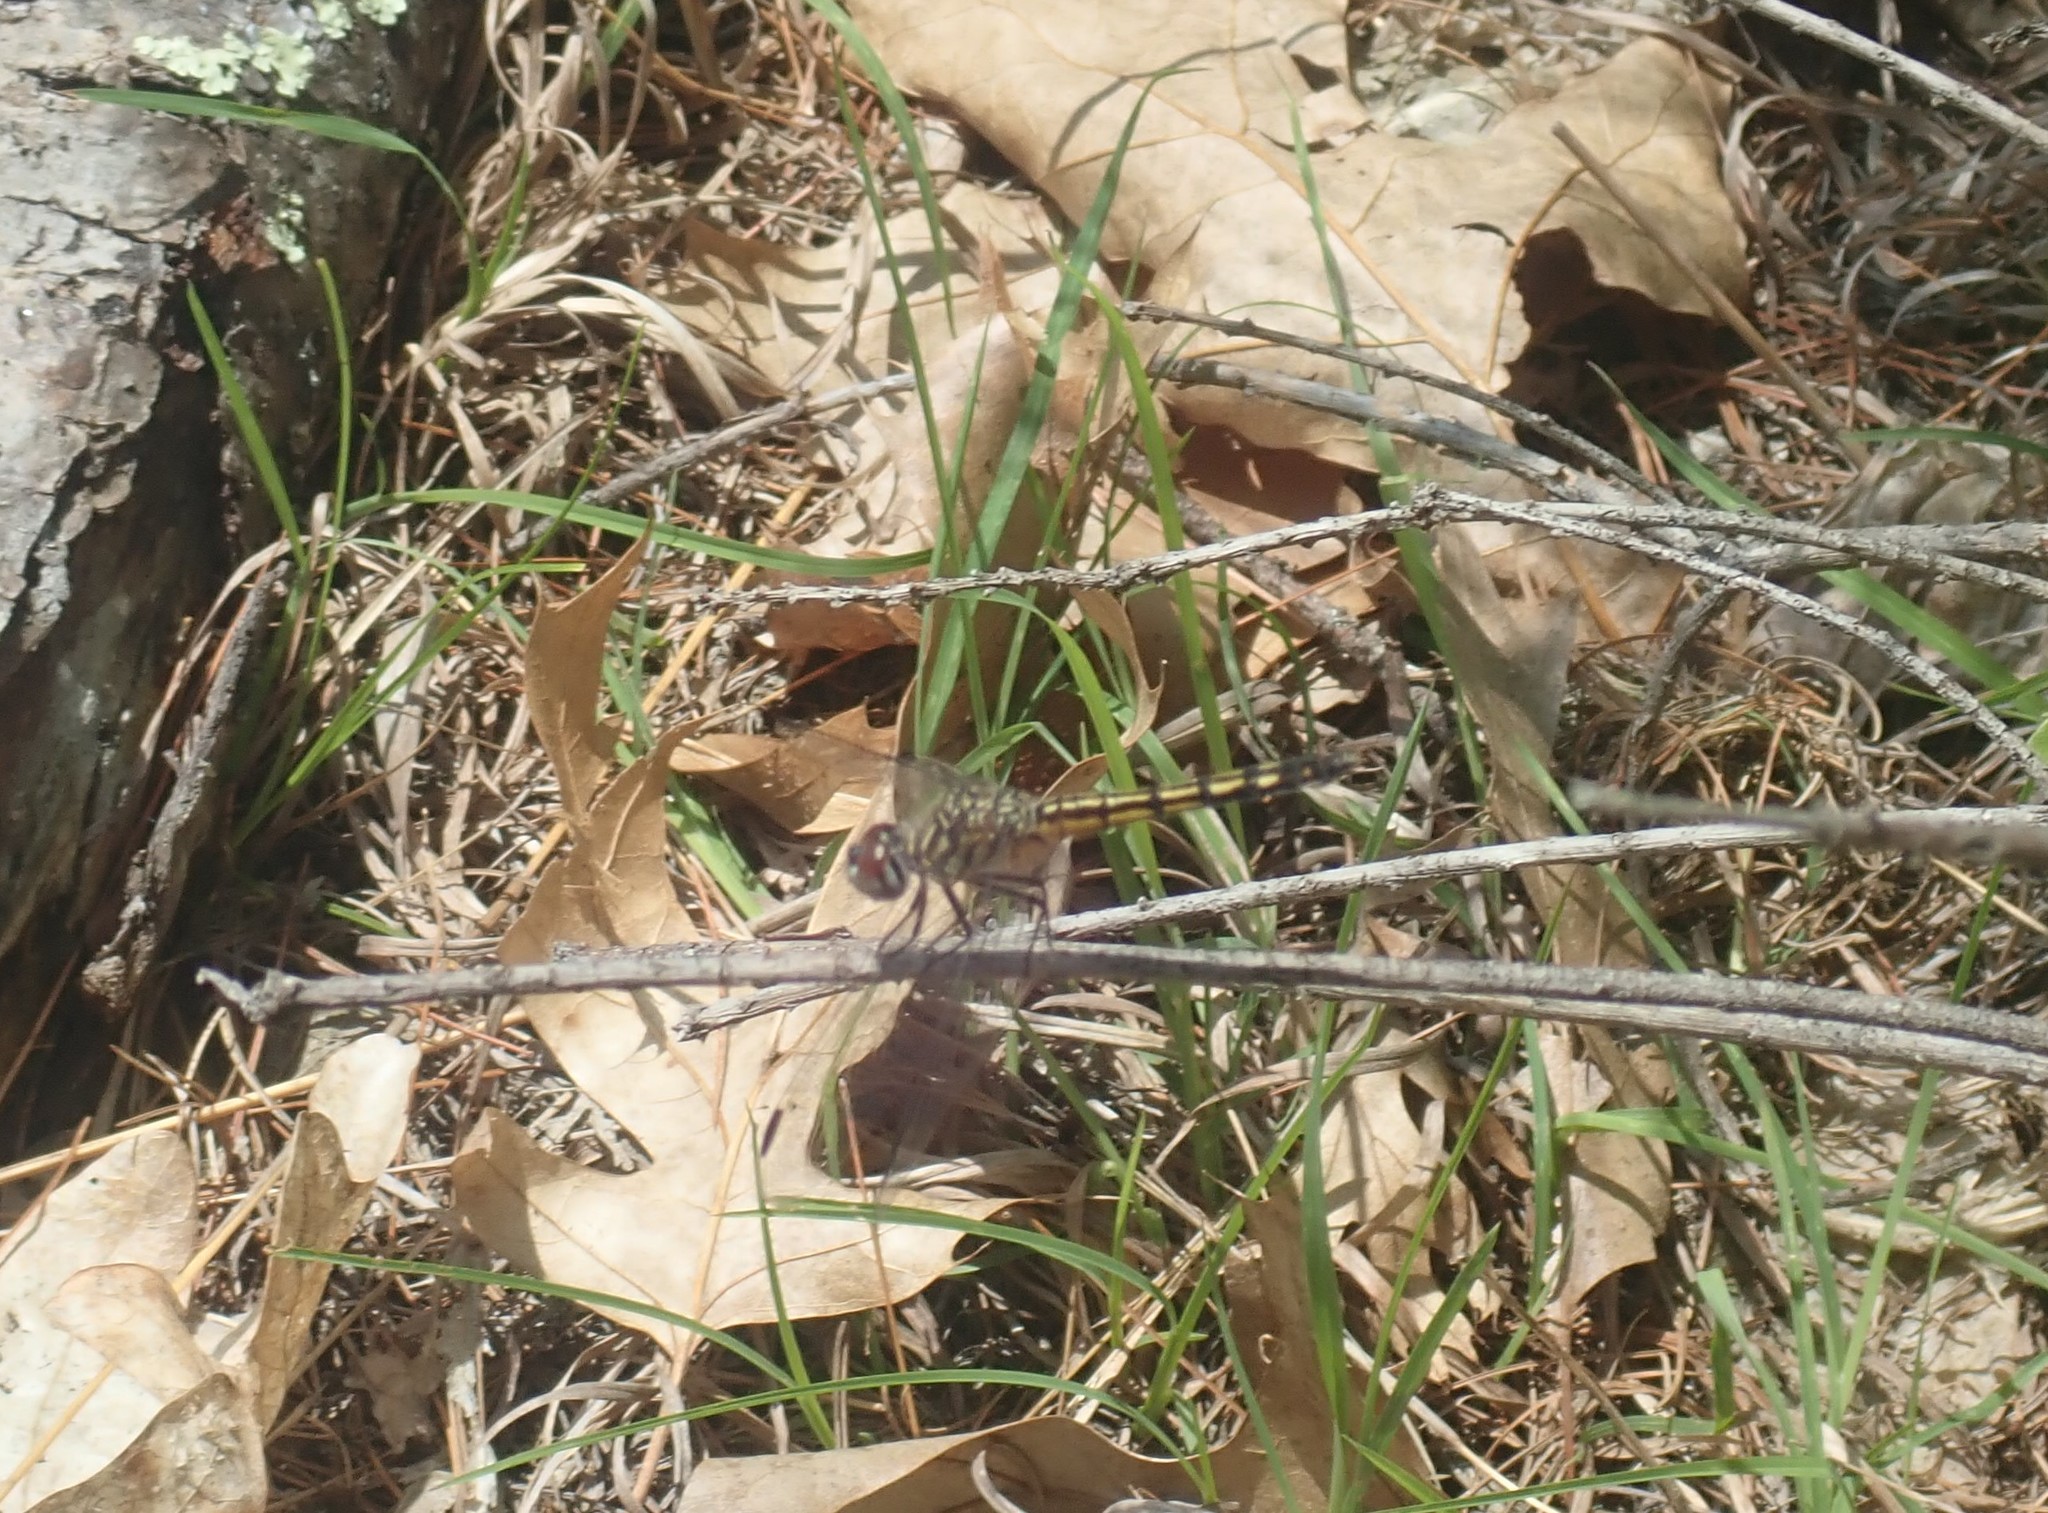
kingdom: Animalia
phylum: Arthropoda
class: Insecta
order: Odonata
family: Libellulidae
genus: Pachydiplax
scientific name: Pachydiplax longipennis
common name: Blue dasher
